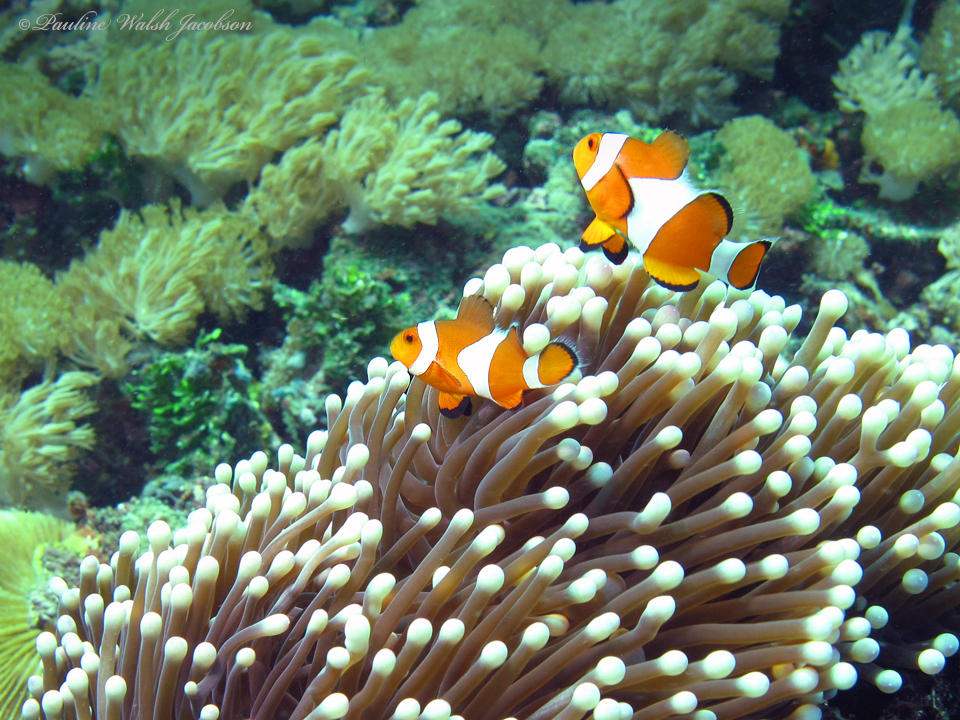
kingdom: Animalia
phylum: Chordata
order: Perciformes
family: Pomacentridae
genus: Amphiprion
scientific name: Amphiprion ocellaris
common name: Clown anemonefish
